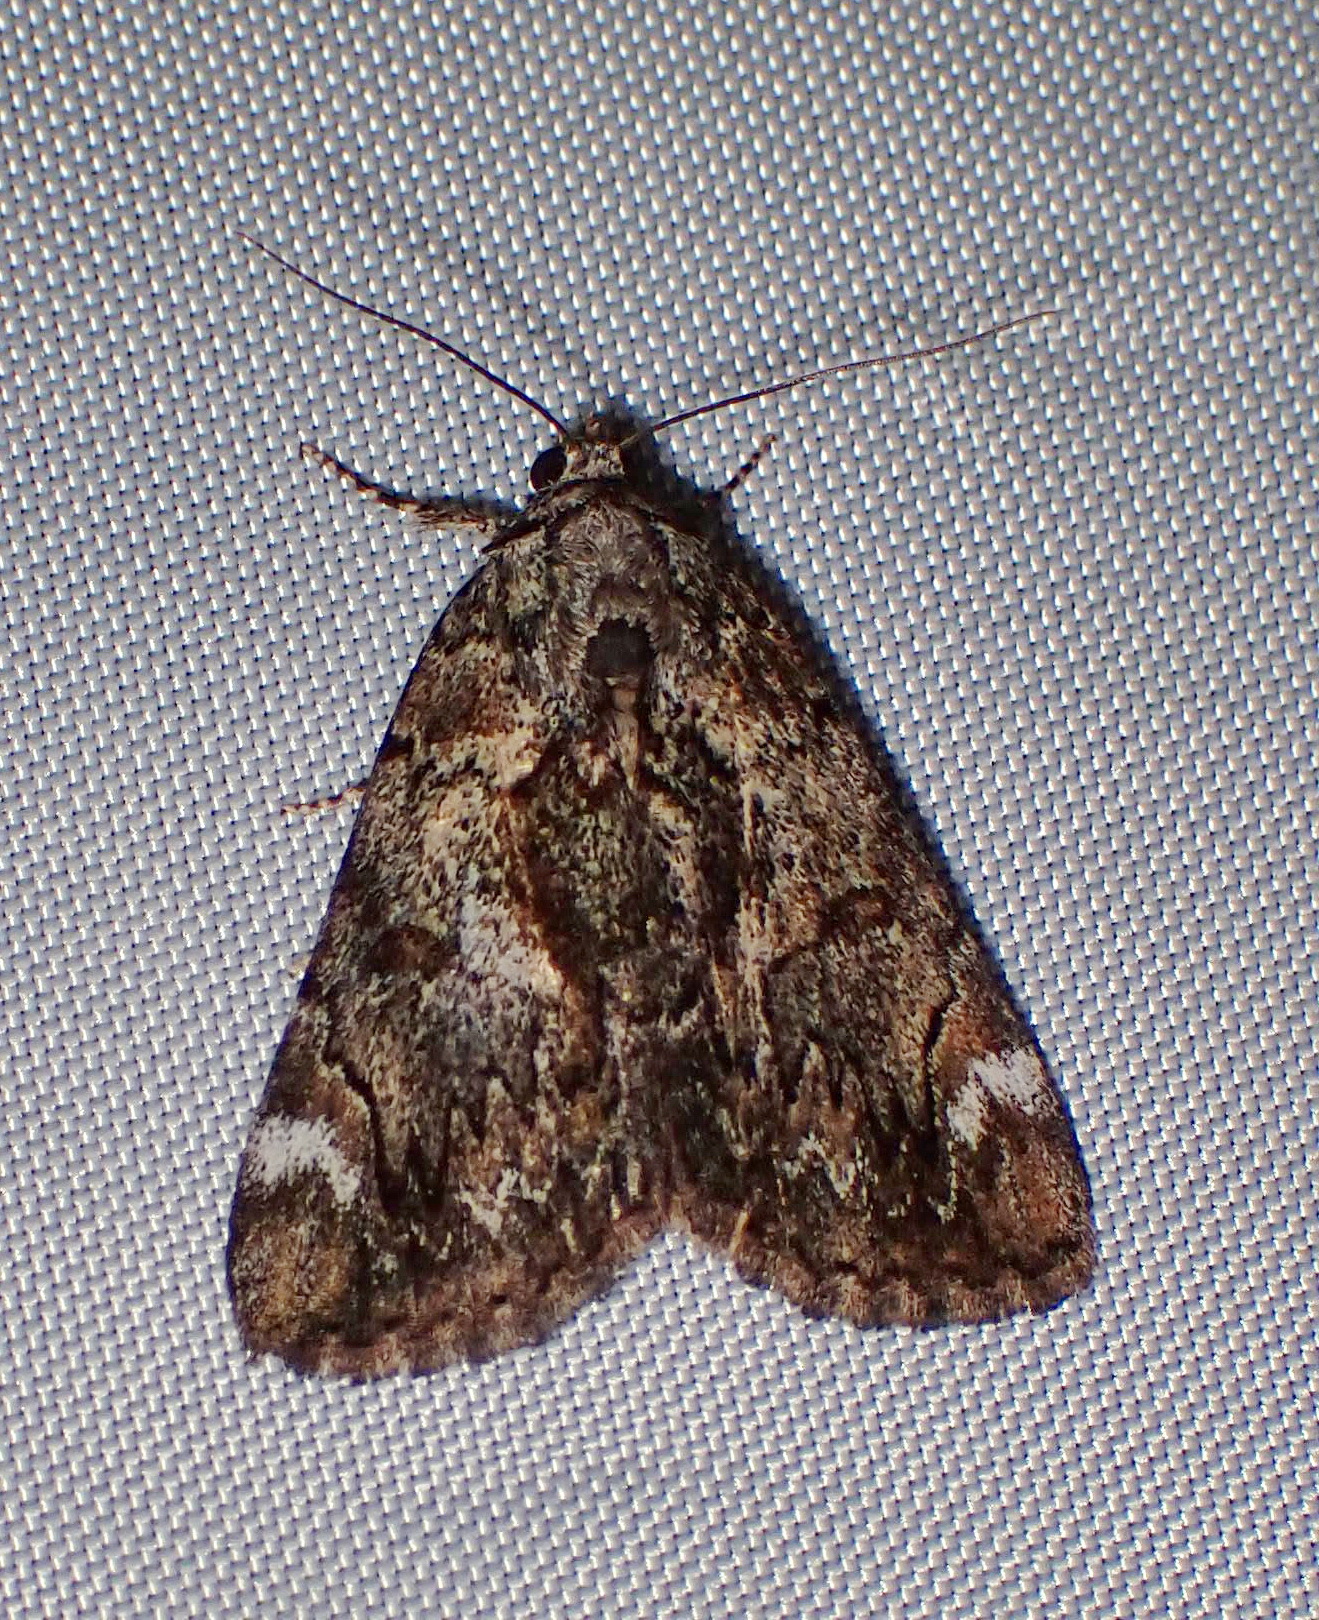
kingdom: Animalia
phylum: Arthropoda
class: Insecta
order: Lepidoptera
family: Erebidae
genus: Catocala
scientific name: Catocala minuta
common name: Little underwing
